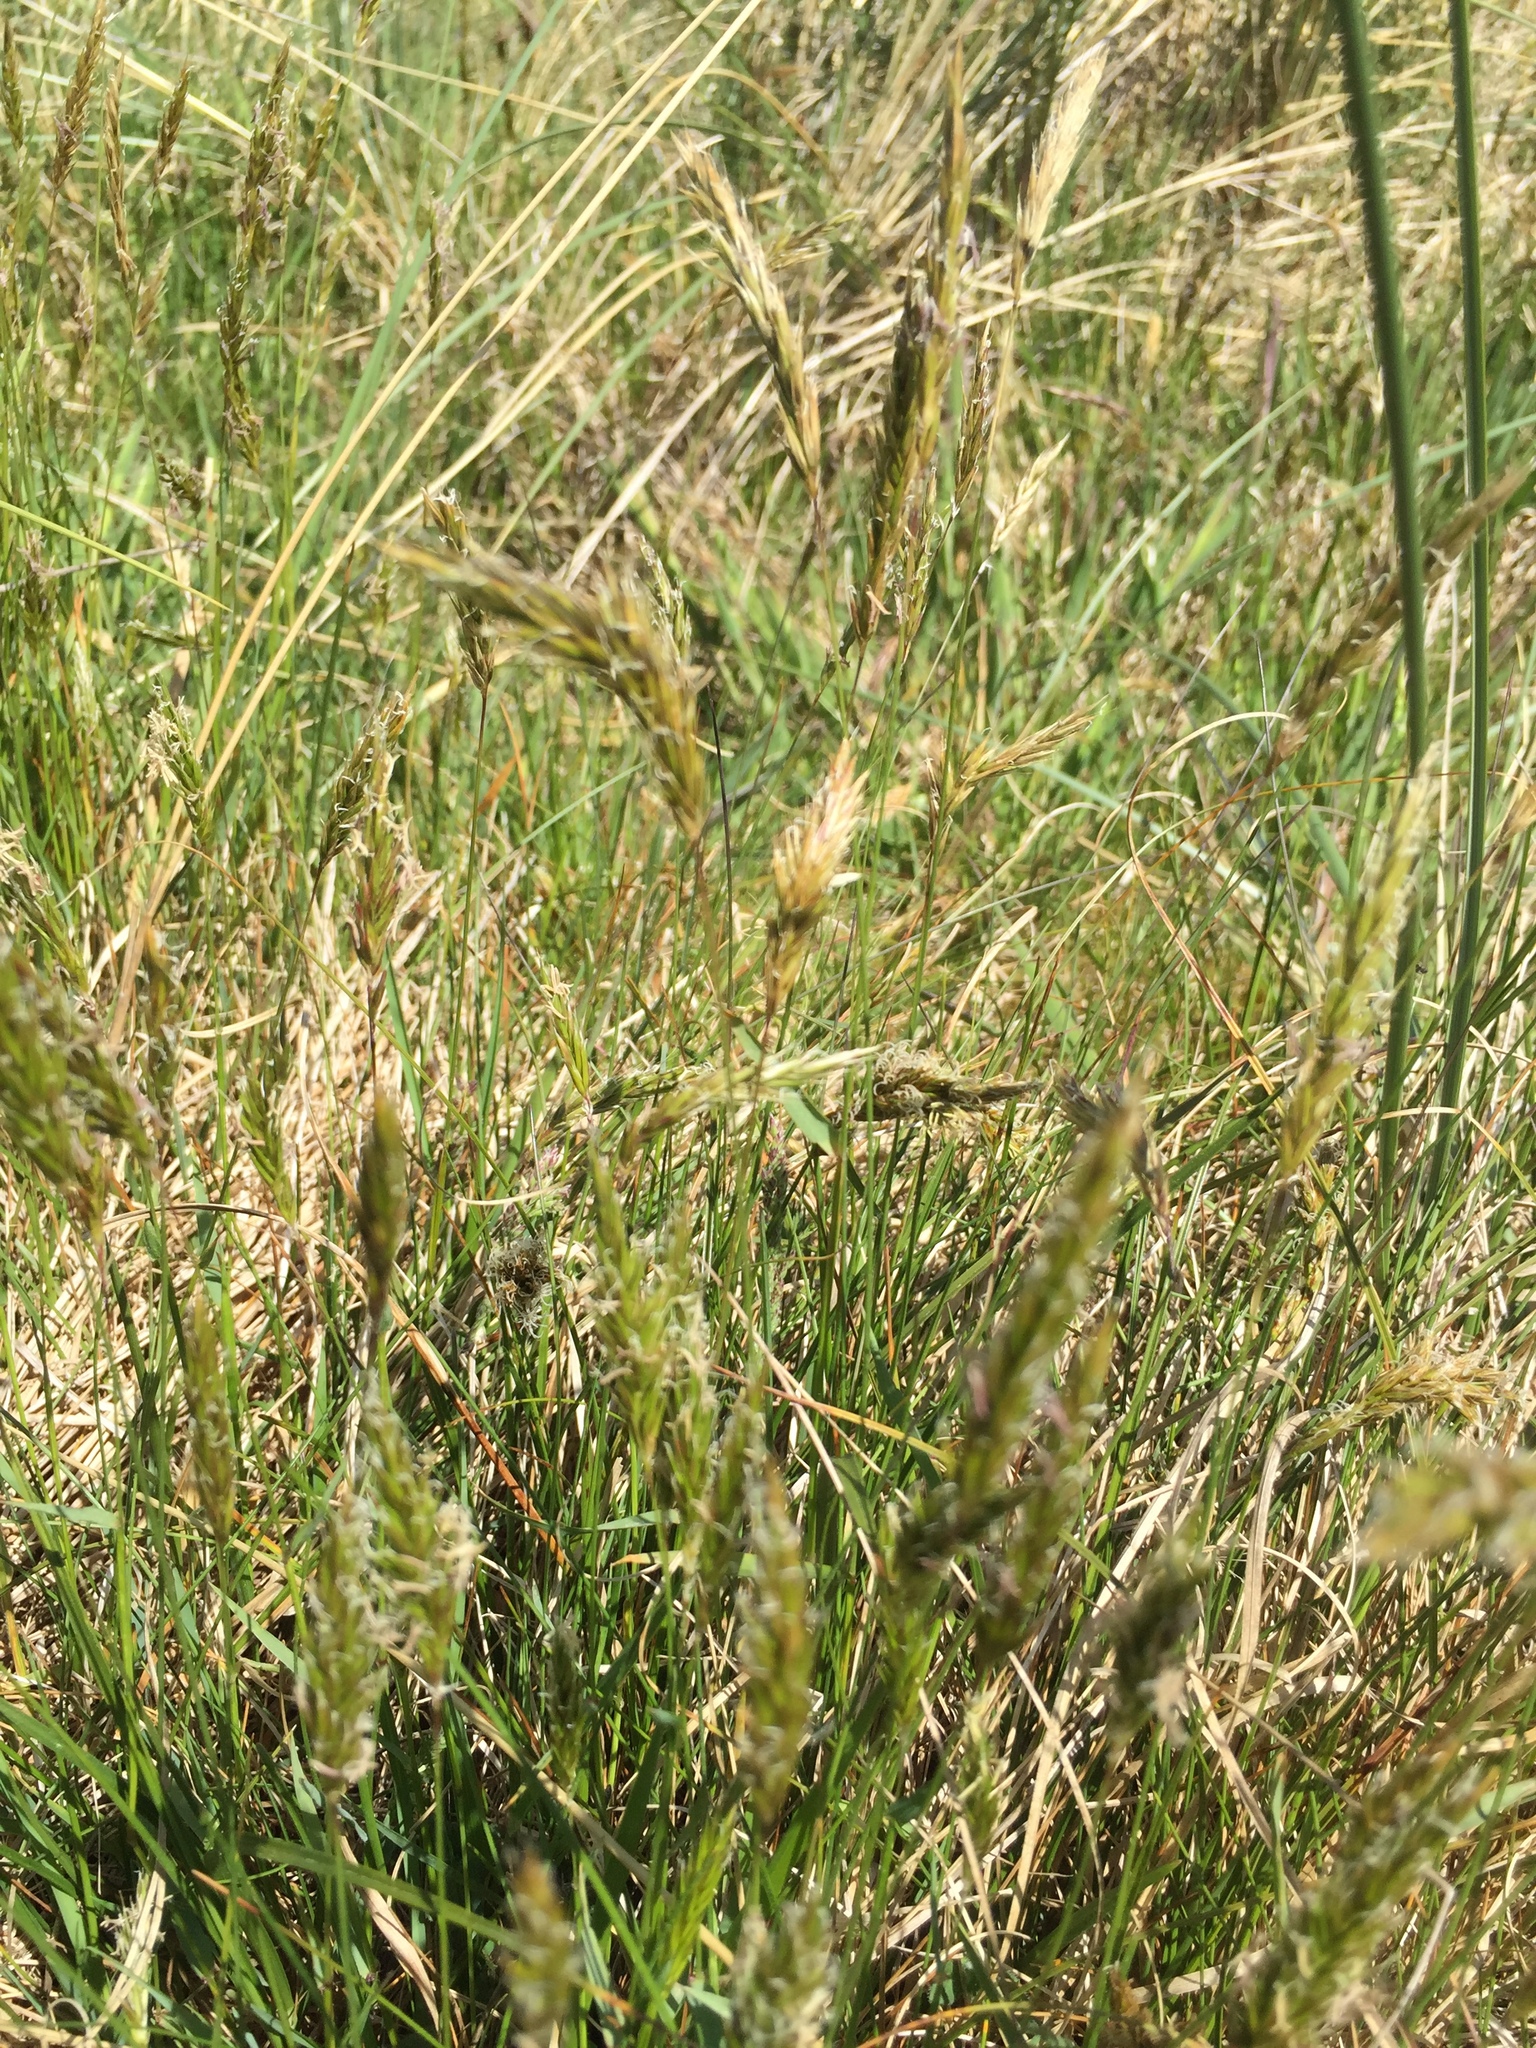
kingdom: Plantae
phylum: Tracheophyta
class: Liliopsida
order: Poales
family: Poaceae
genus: Anthoxanthum
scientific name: Anthoxanthum odoratum
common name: Sweet vernalgrass
